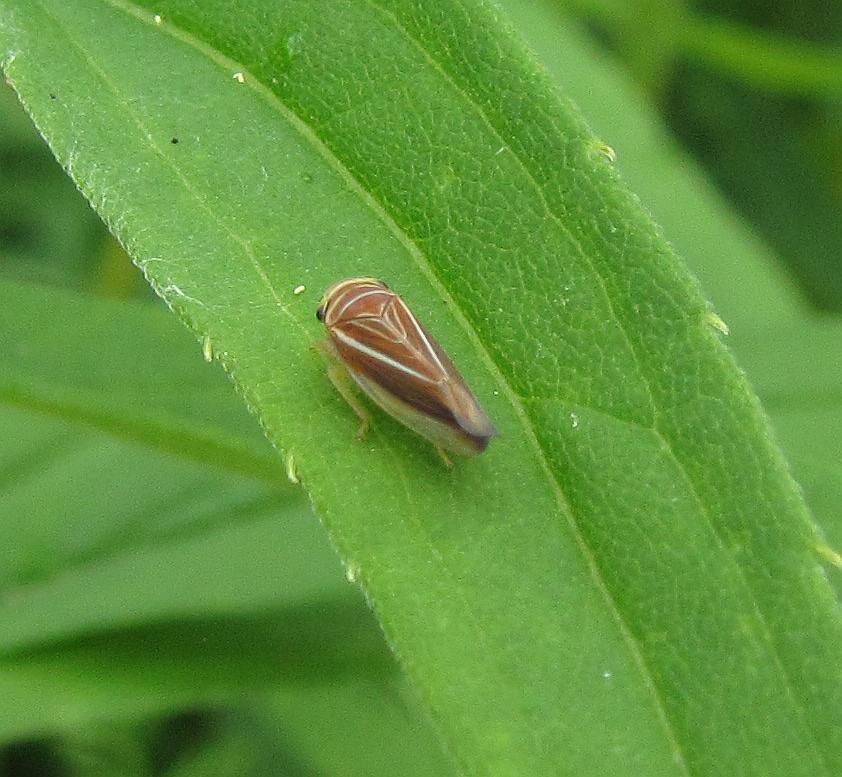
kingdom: Animalia
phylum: Arthropoda
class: Insecta
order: Hemiptera
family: Cicadellidae
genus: Idiodonus
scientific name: Idiodonus kennicotti
